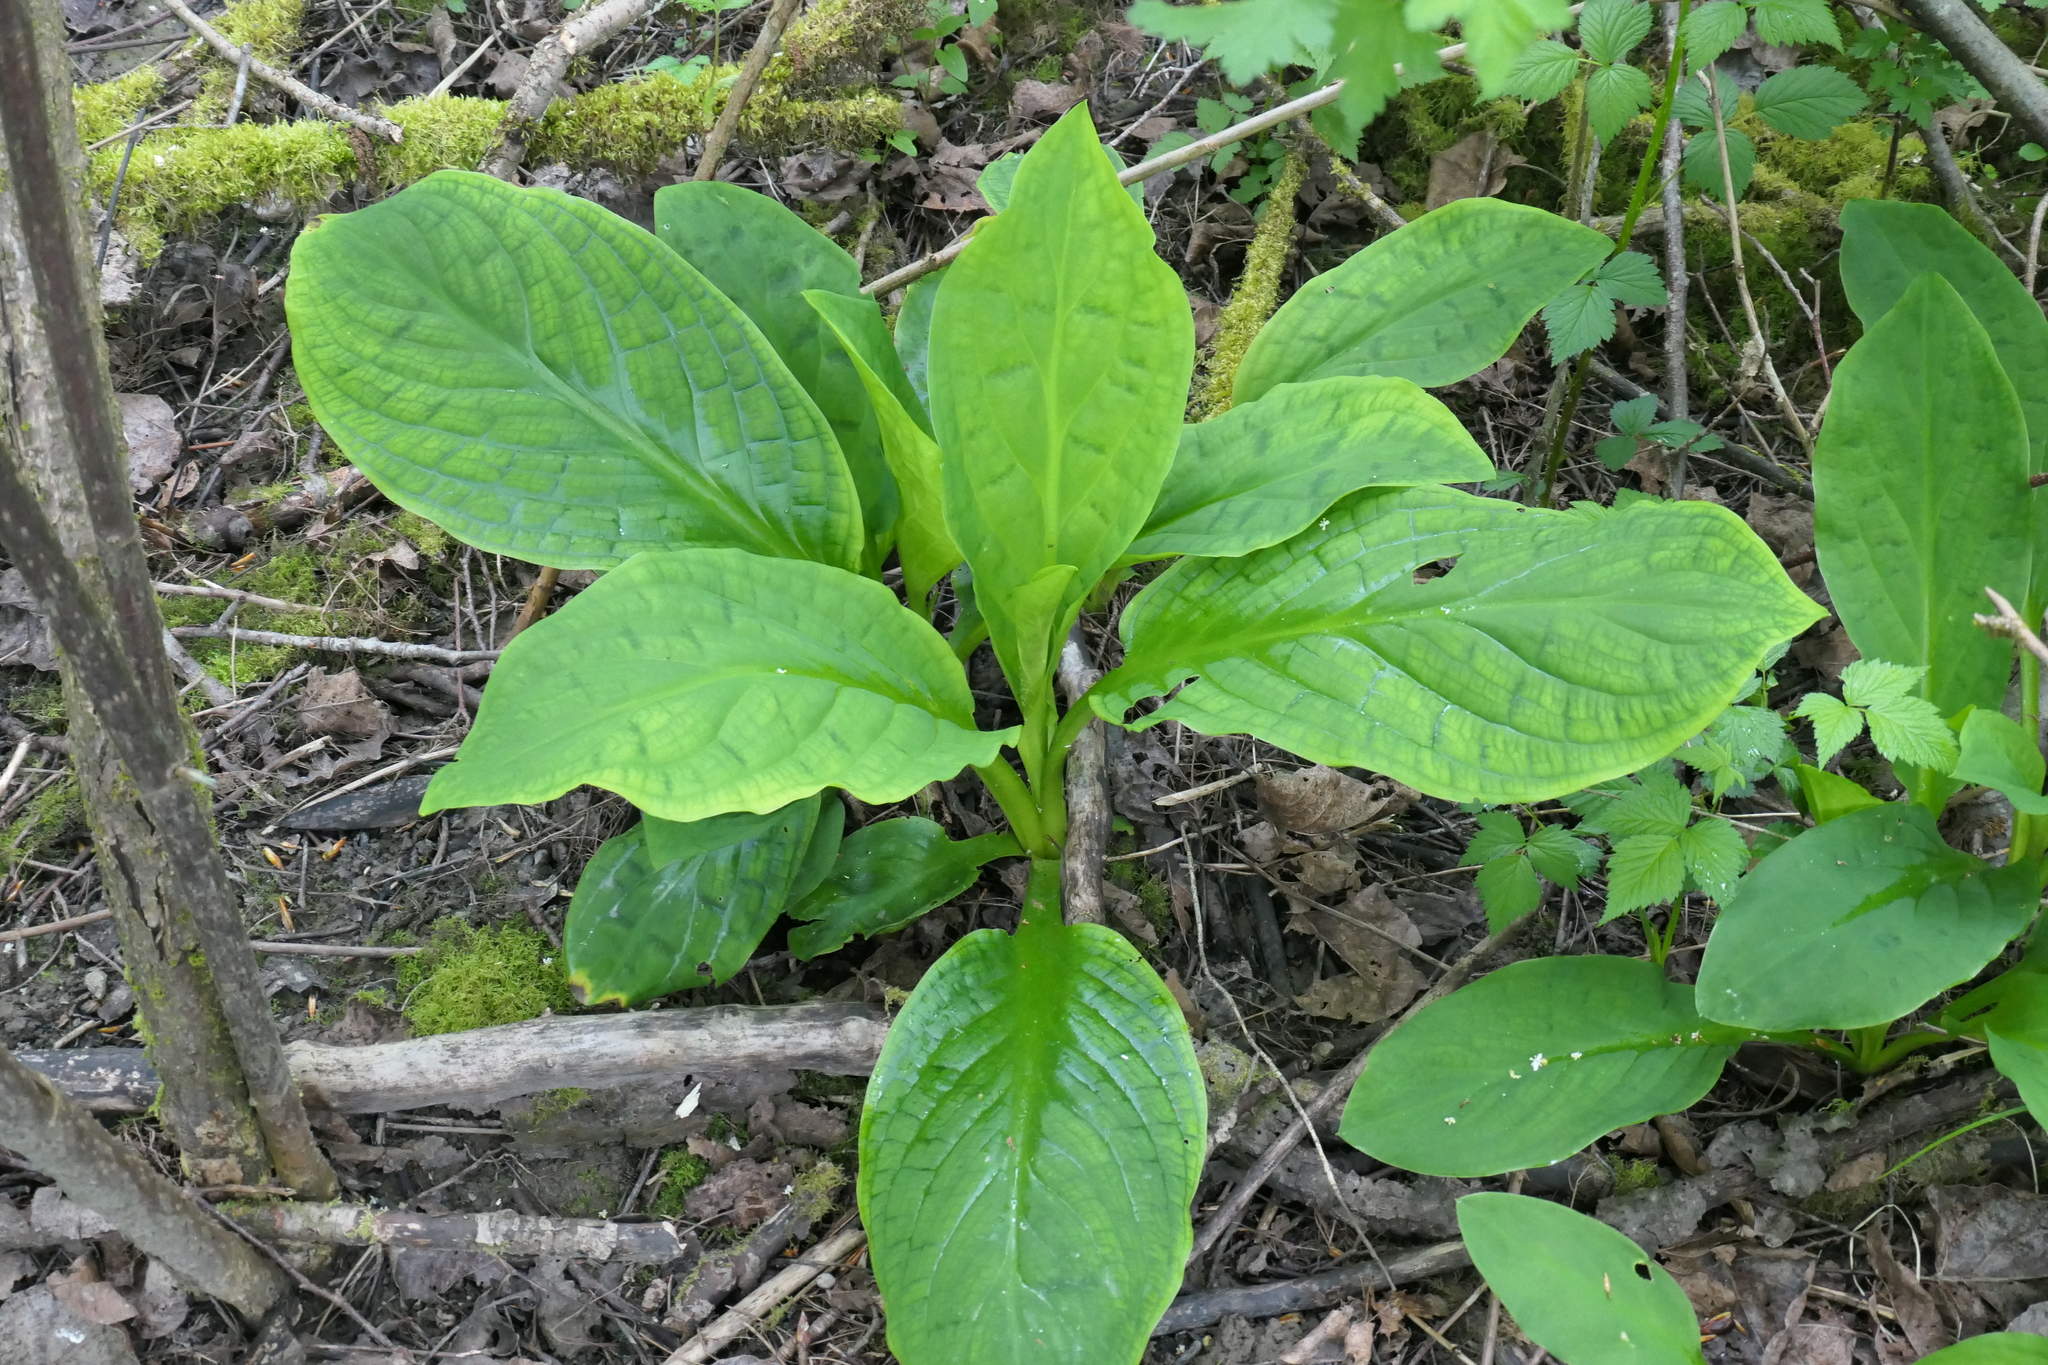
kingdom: Plantae
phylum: Tracheophyta
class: Liliopsida
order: Alismatales
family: Araceae
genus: Lysichiton
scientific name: Lysichiton americanus
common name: American skunk cabbage
